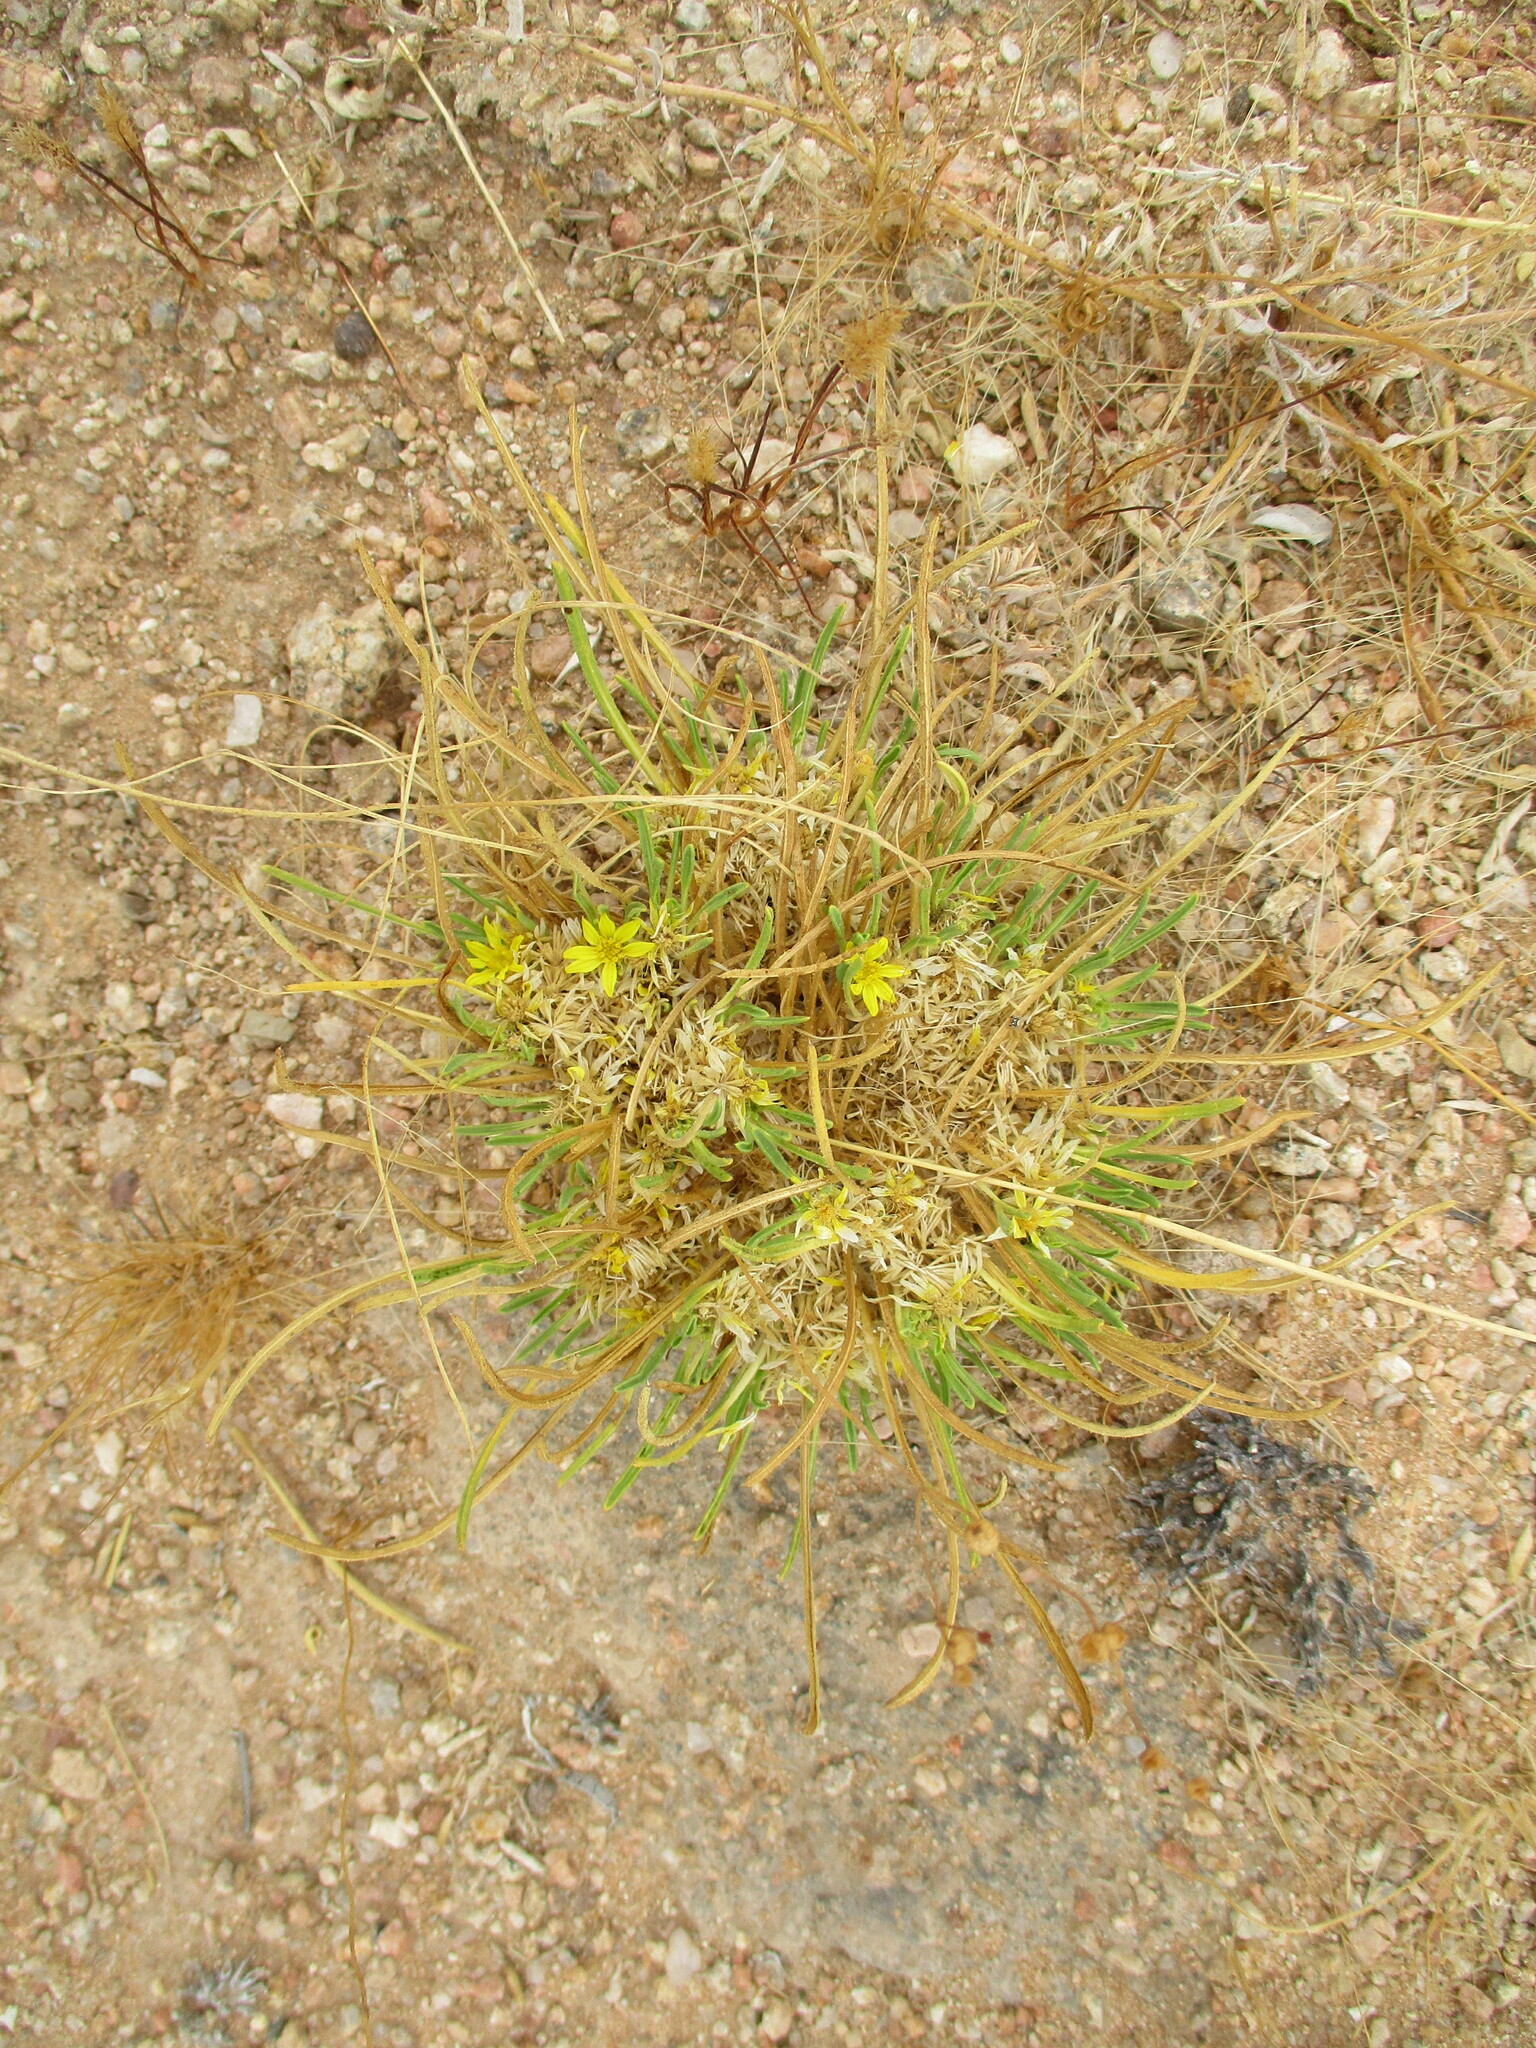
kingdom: Plantae
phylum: Tracheophyta
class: Magnoliopsida
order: Asterales
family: Asteraceae
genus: Geigeria
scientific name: Geigeria ornativa
